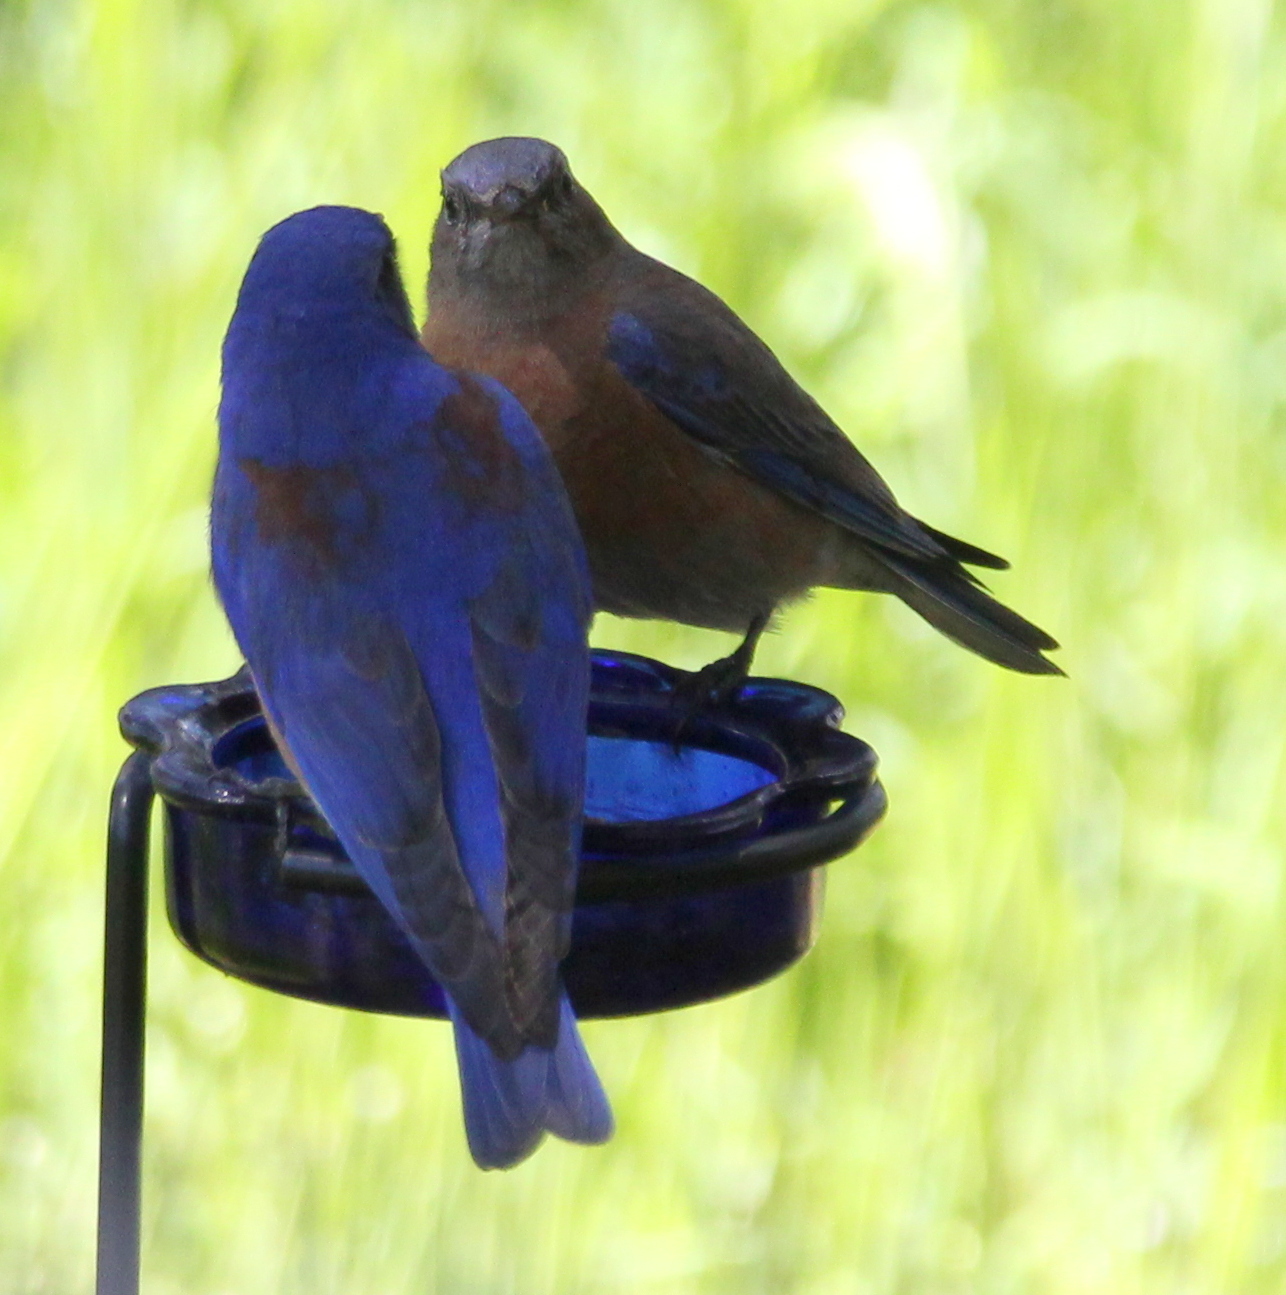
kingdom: Animalia
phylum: Chordata
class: Aves
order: Passeriformes
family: Turdidae
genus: Sialia
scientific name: Sialia mexicana
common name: Western bluebird
